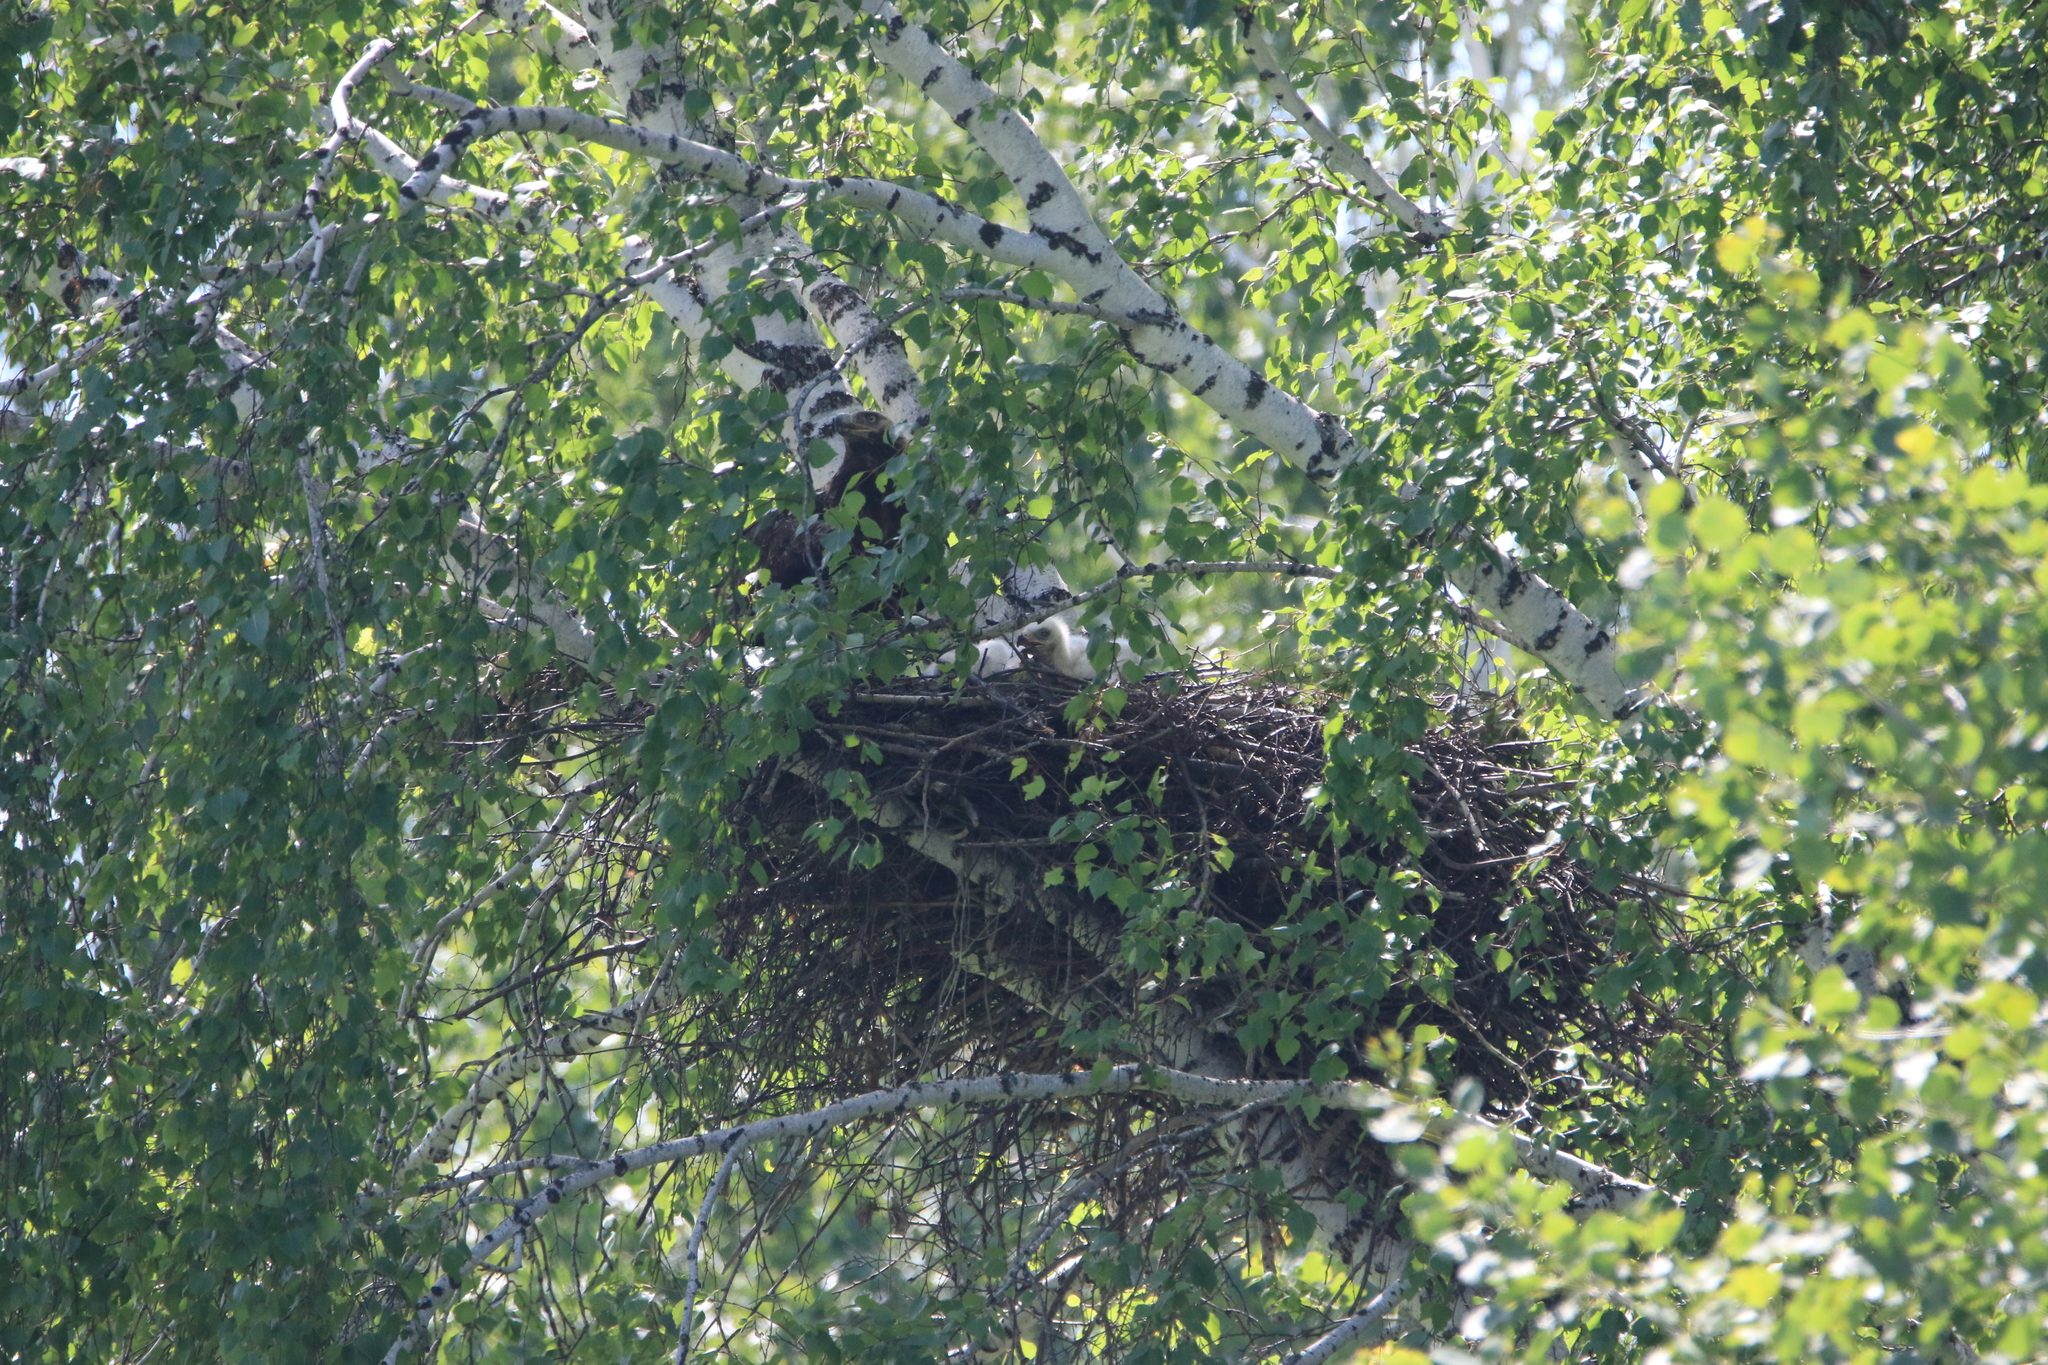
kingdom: Animalia
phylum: Chordata
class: Aves
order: Accipitriformes
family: Accipitridae
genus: Aquila
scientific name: Aquila heliaca
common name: Eastern imperial eagle
